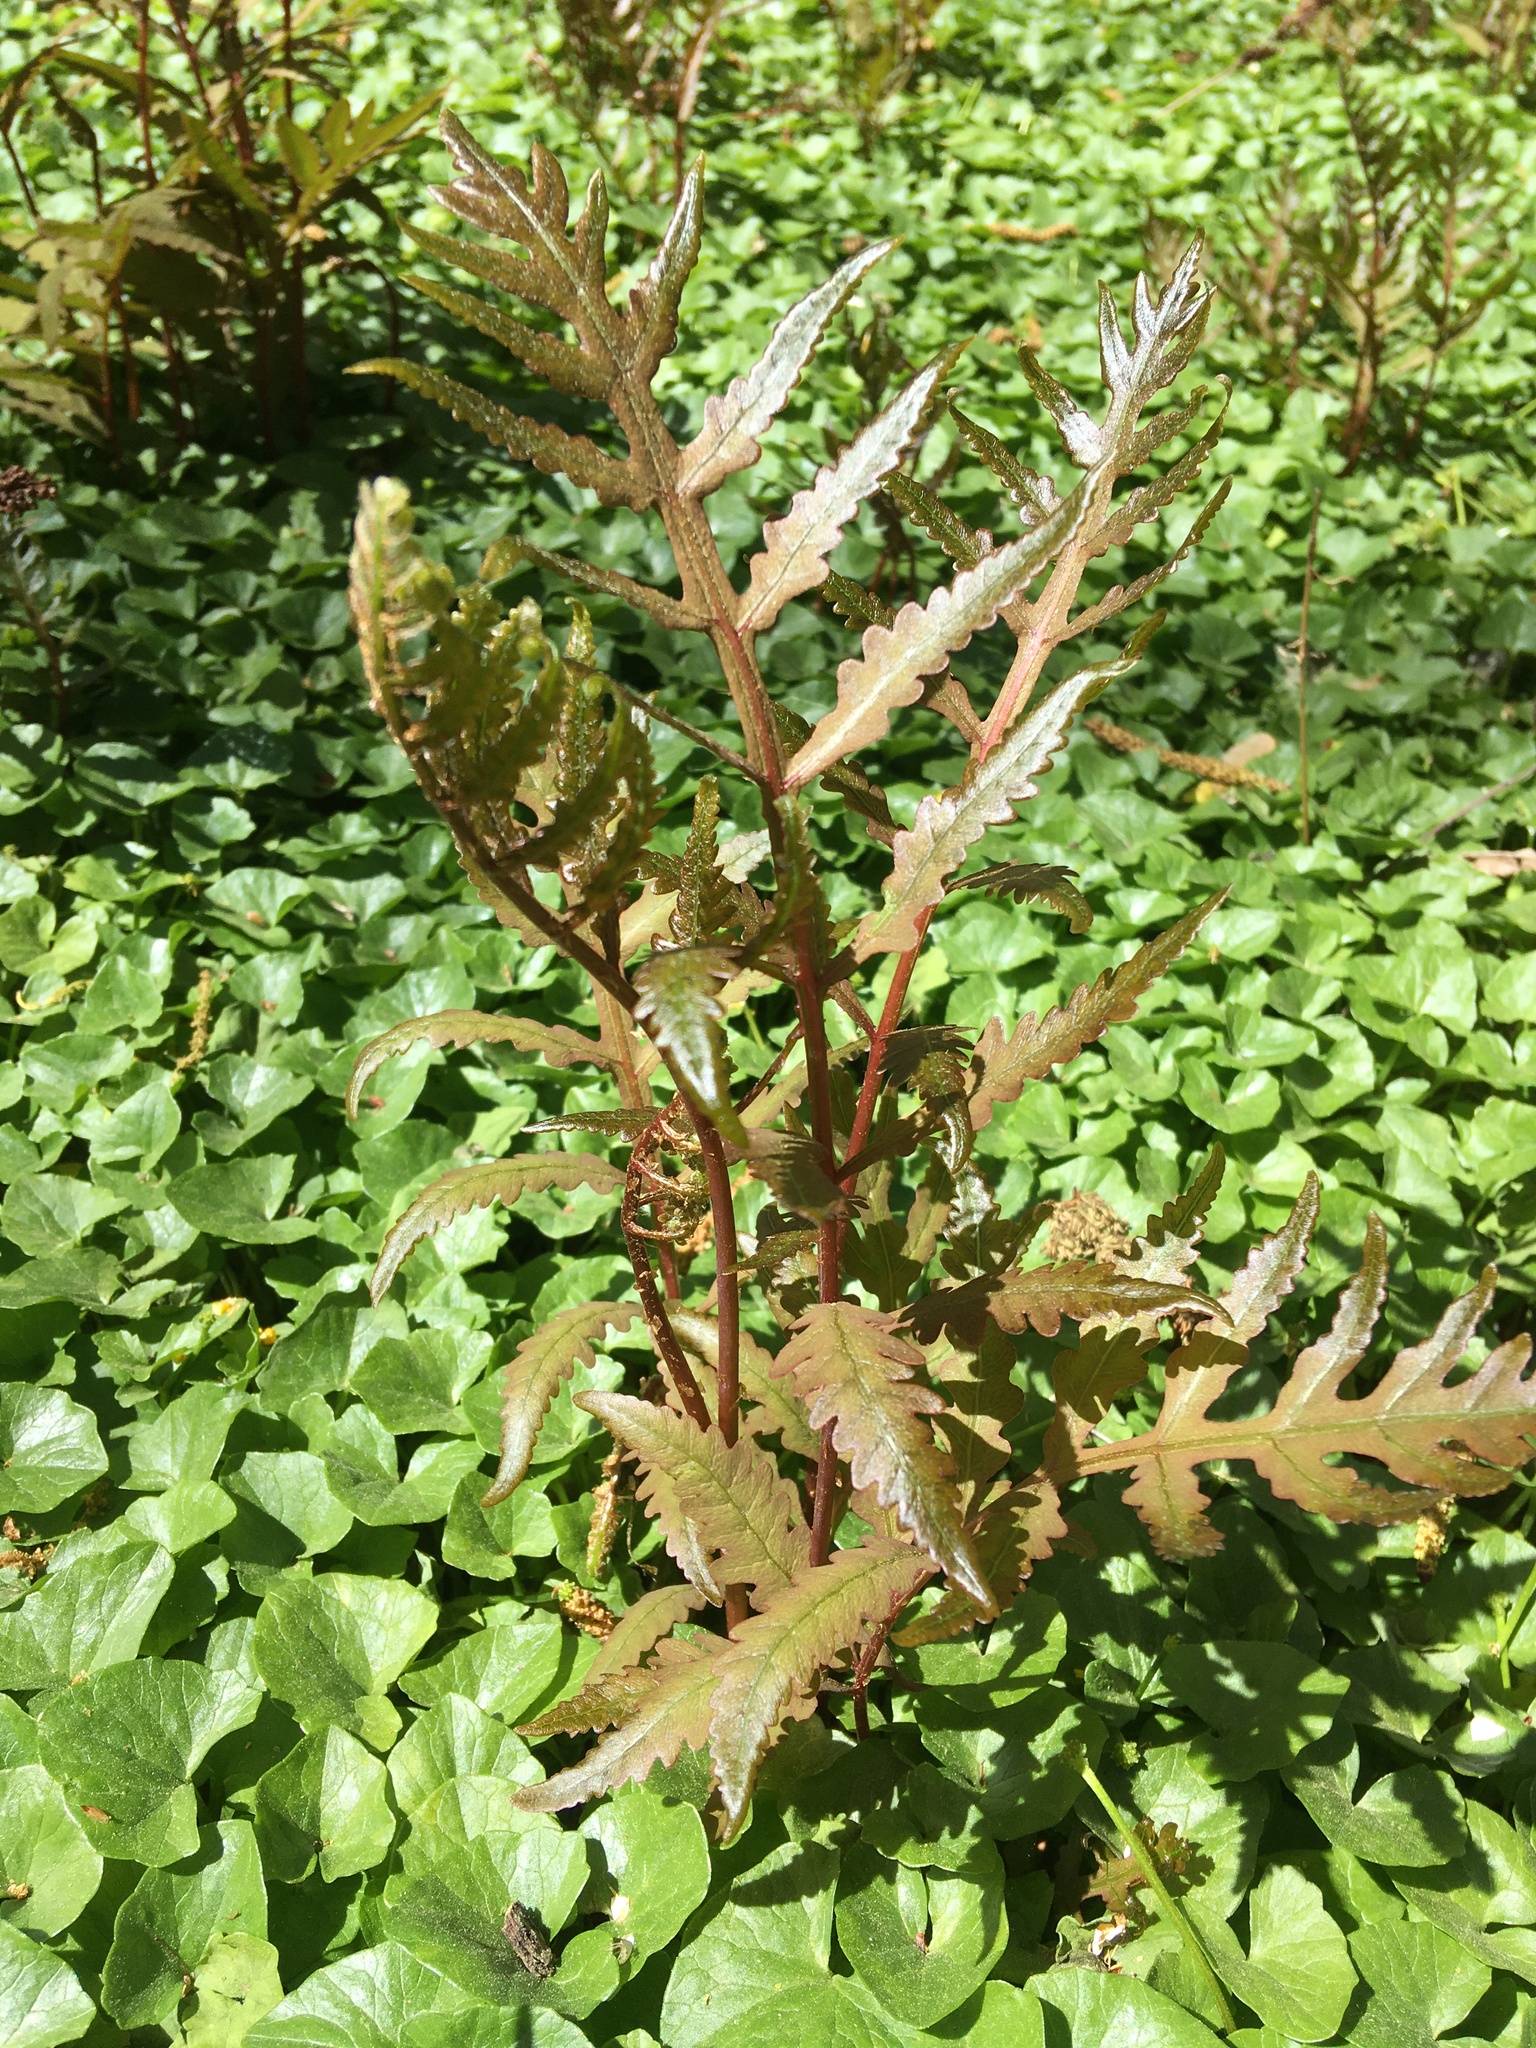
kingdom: Plantae
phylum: Tracheophyta
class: Polypodiopsida
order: Polypodiales
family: Onocleaceae
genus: Onoclea
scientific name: Onoclea sensibilis
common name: Sensitive fern
